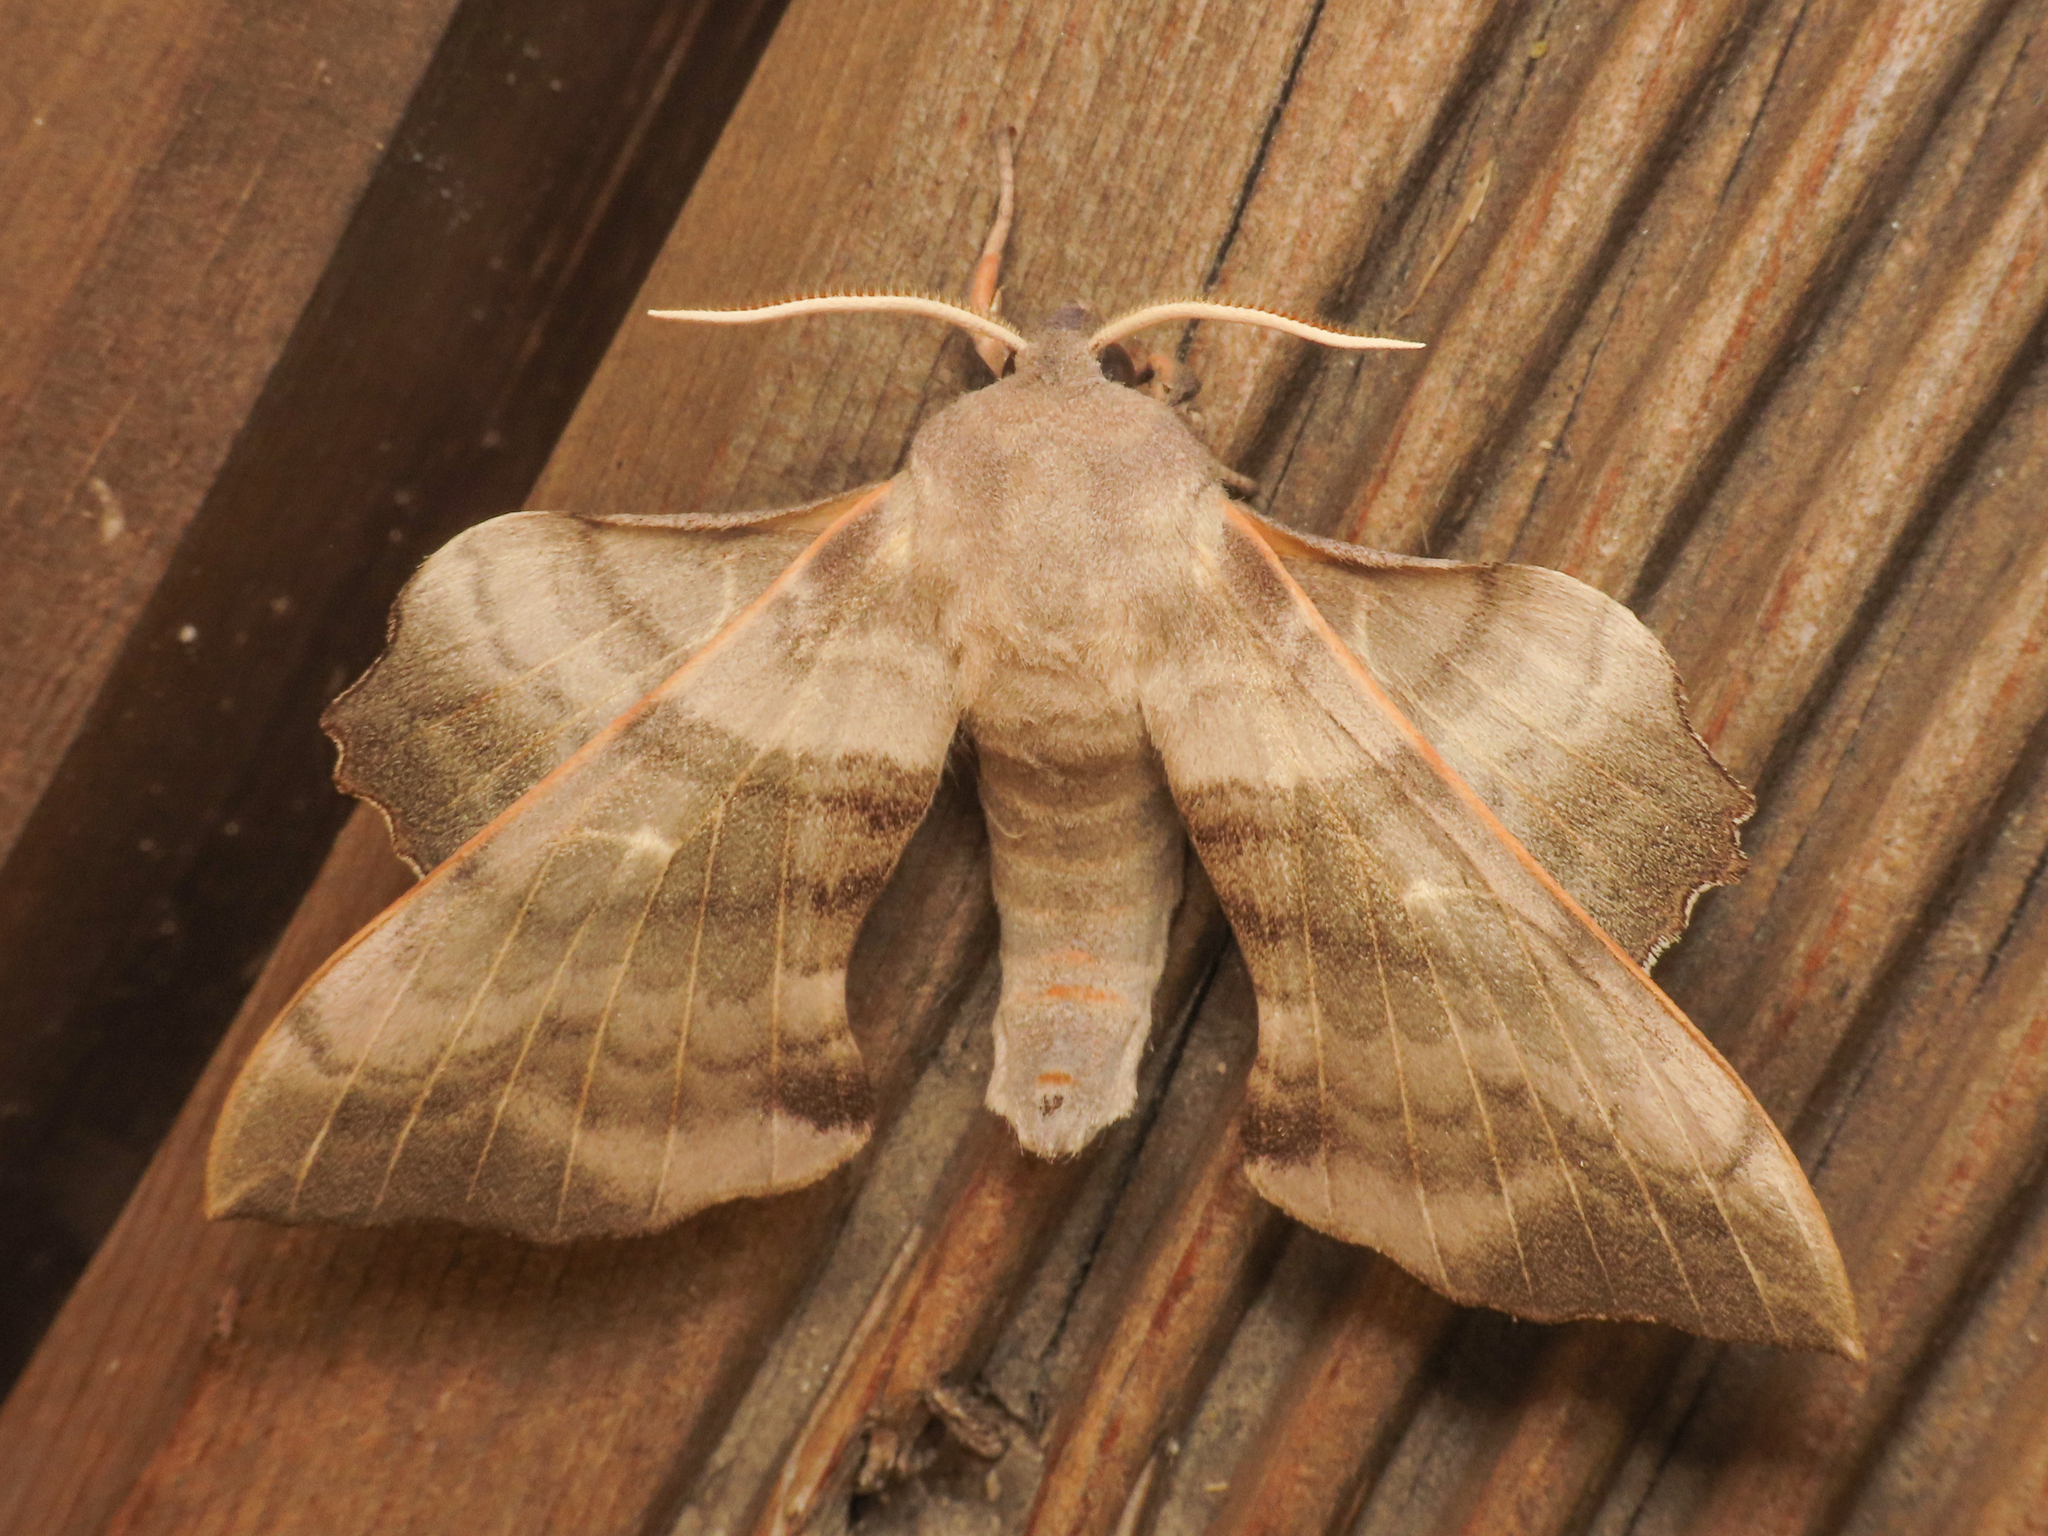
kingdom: Animalia
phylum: Arthropoda
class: Insecta
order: Lepidoptera
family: Sphingidae
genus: Laothoe
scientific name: Laothoe populi
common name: Poplar hawk-moth
